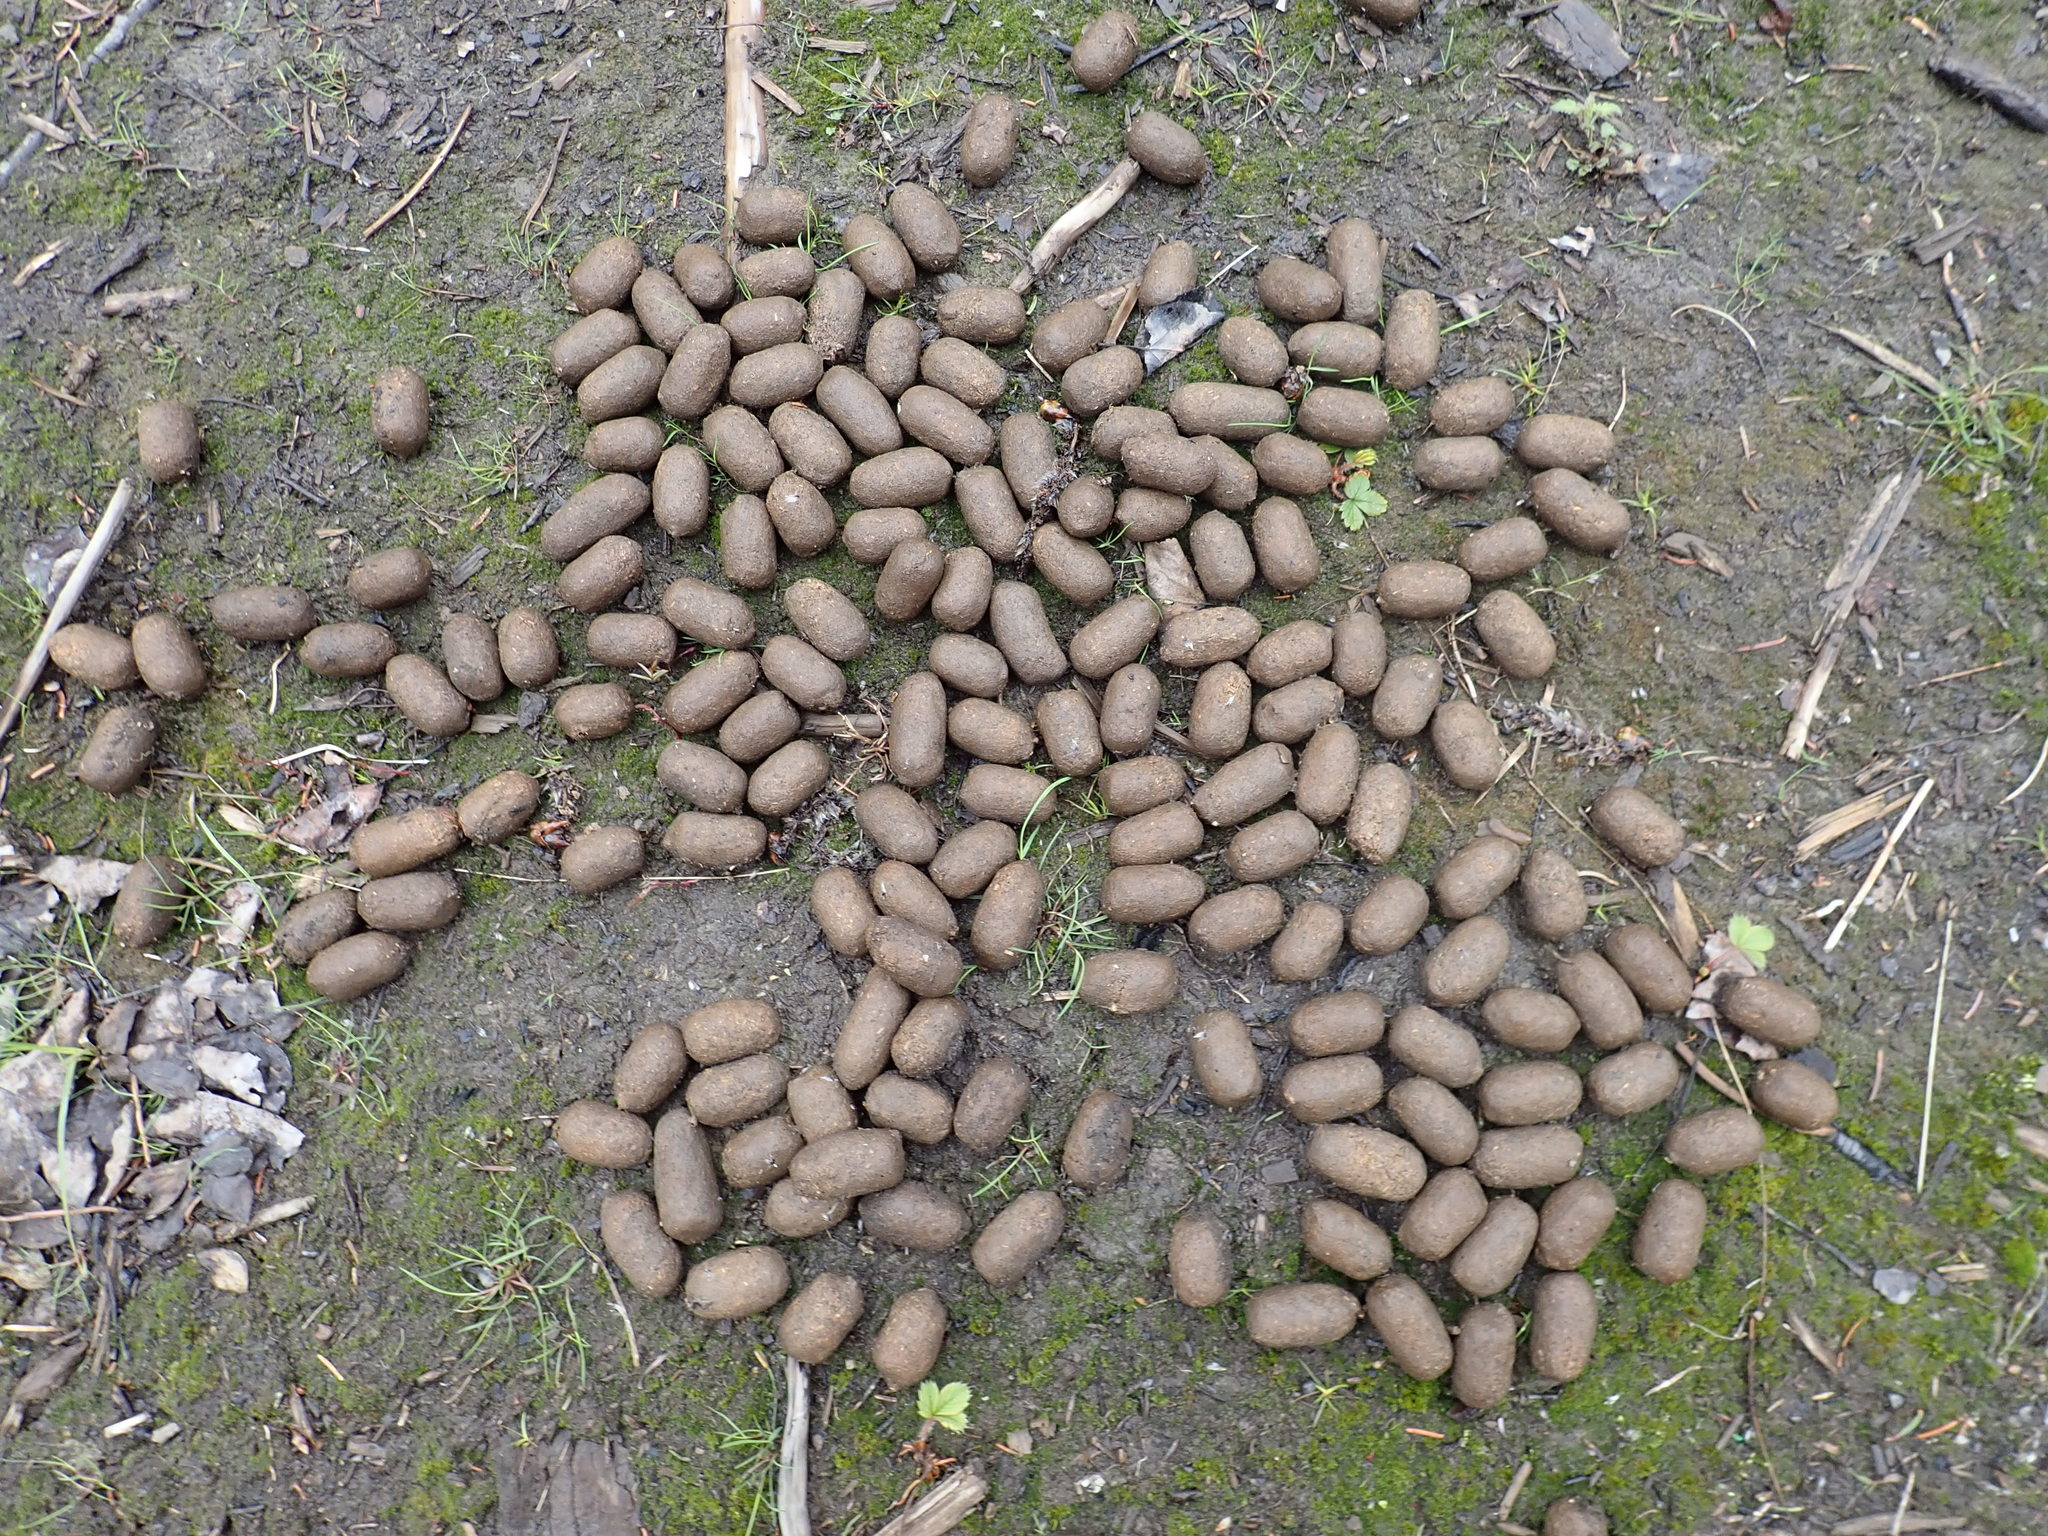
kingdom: Animalia
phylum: Chordata
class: Mammalia
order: Artiodactyla
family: Cervidae
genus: Alces
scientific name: Alces alces
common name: Moose
